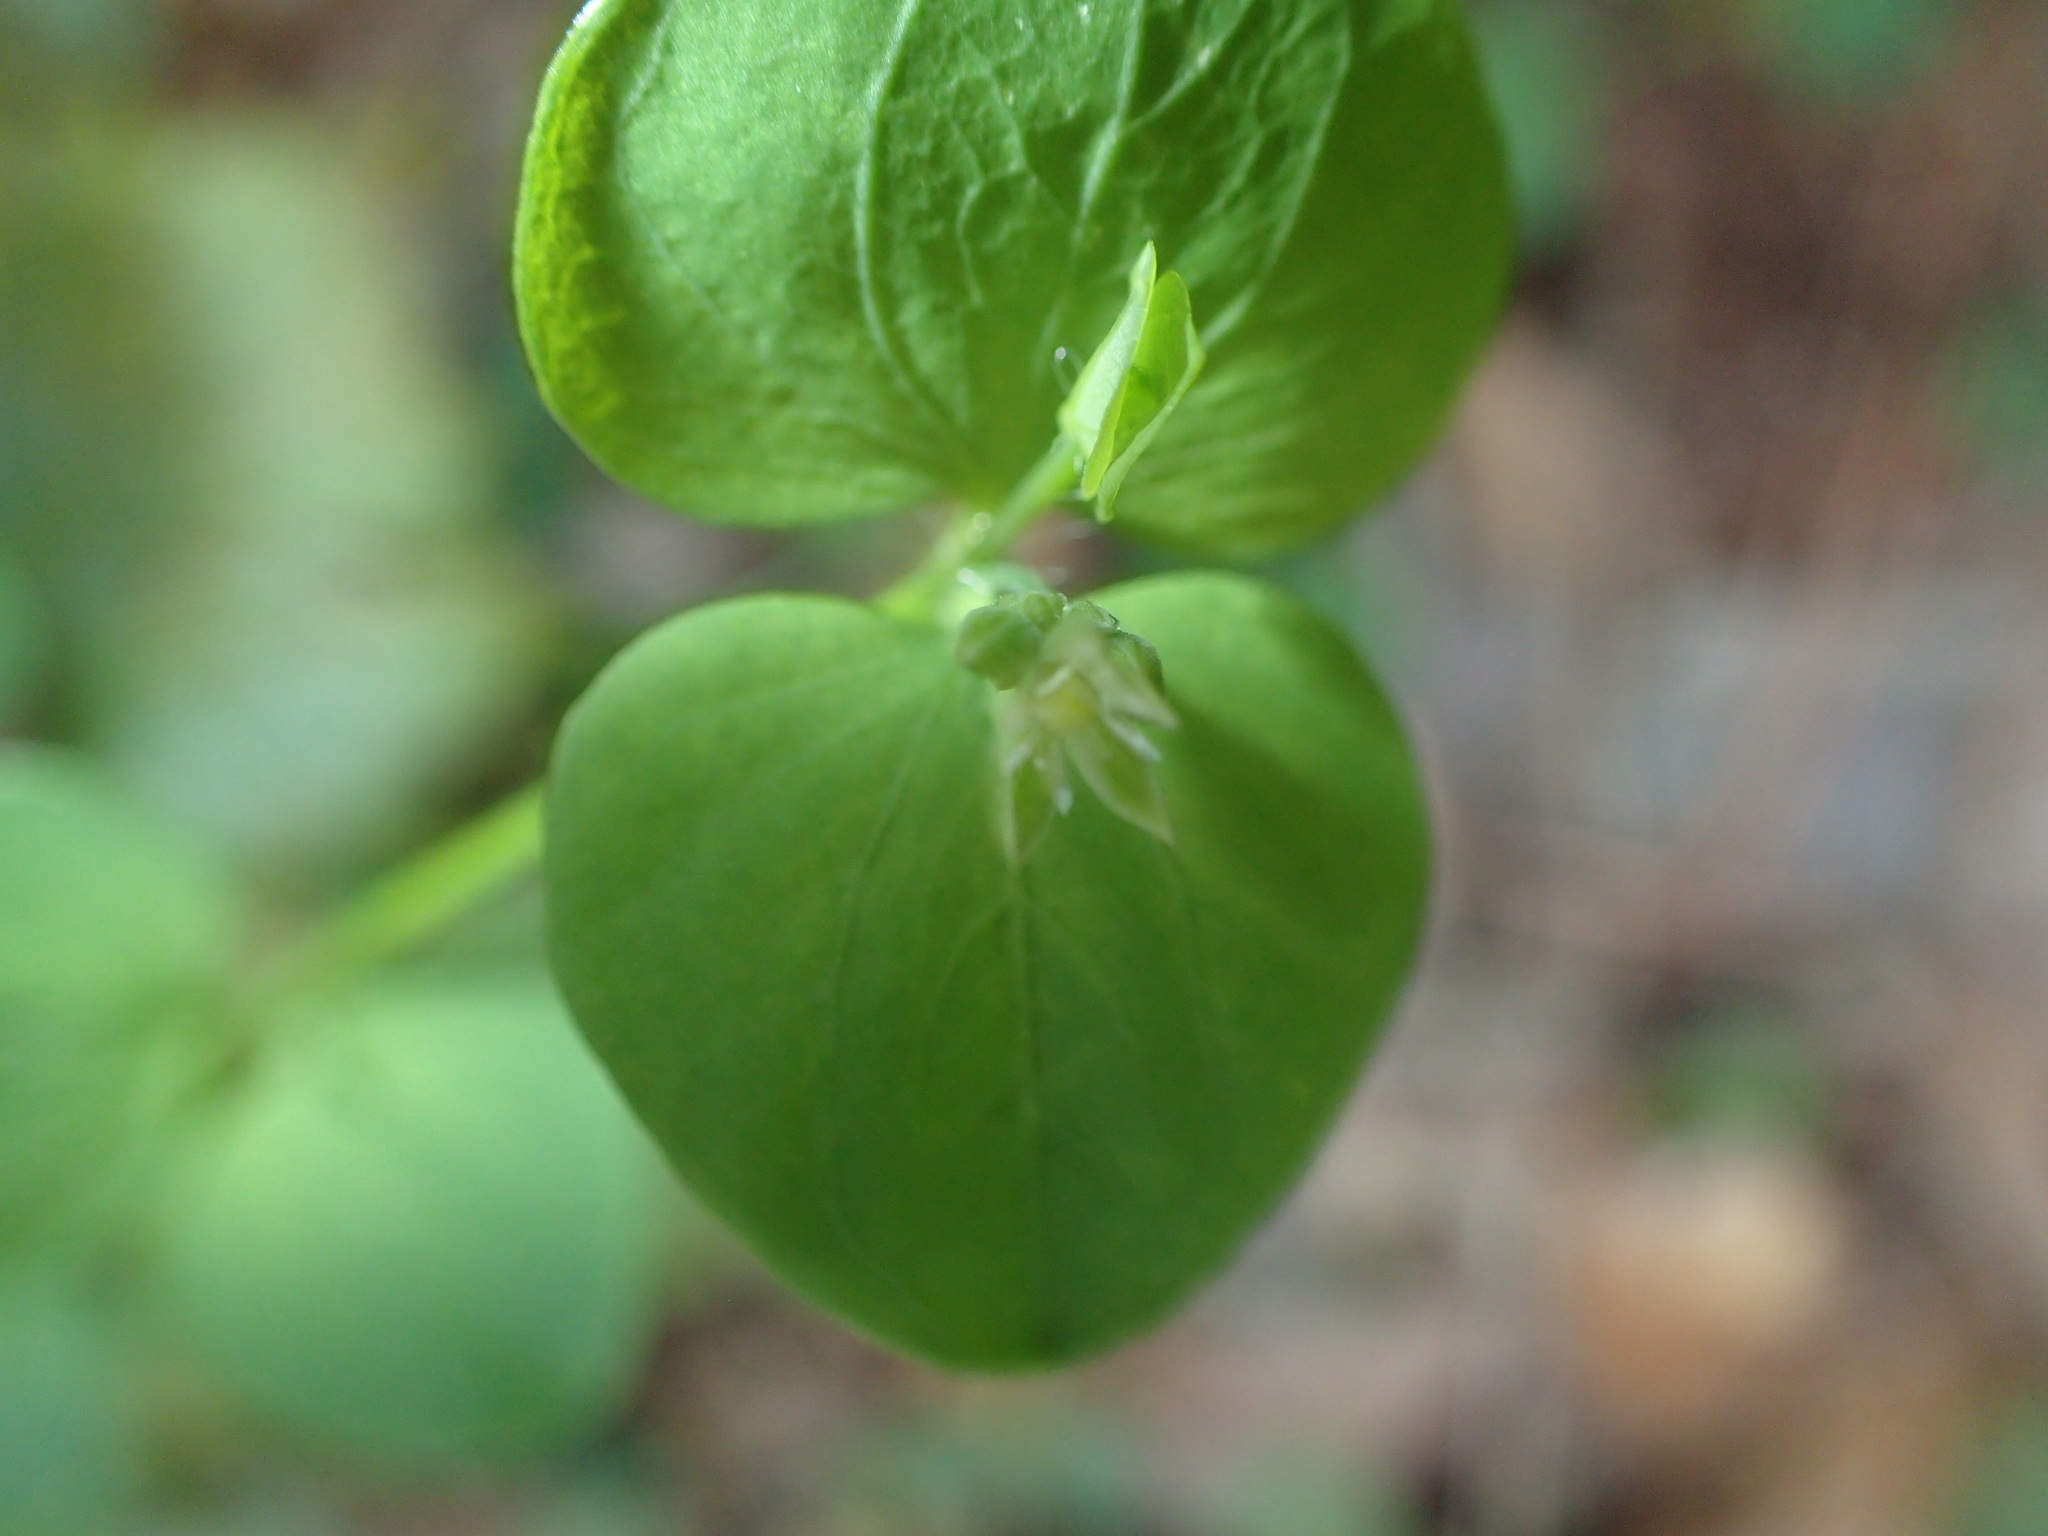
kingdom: Plantae
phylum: Tracheophyta
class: Magnoliopsida
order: Caryophyllales
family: Caryophyllaceae
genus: Drymaria
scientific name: Drymaria cordata
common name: Whitesnow
